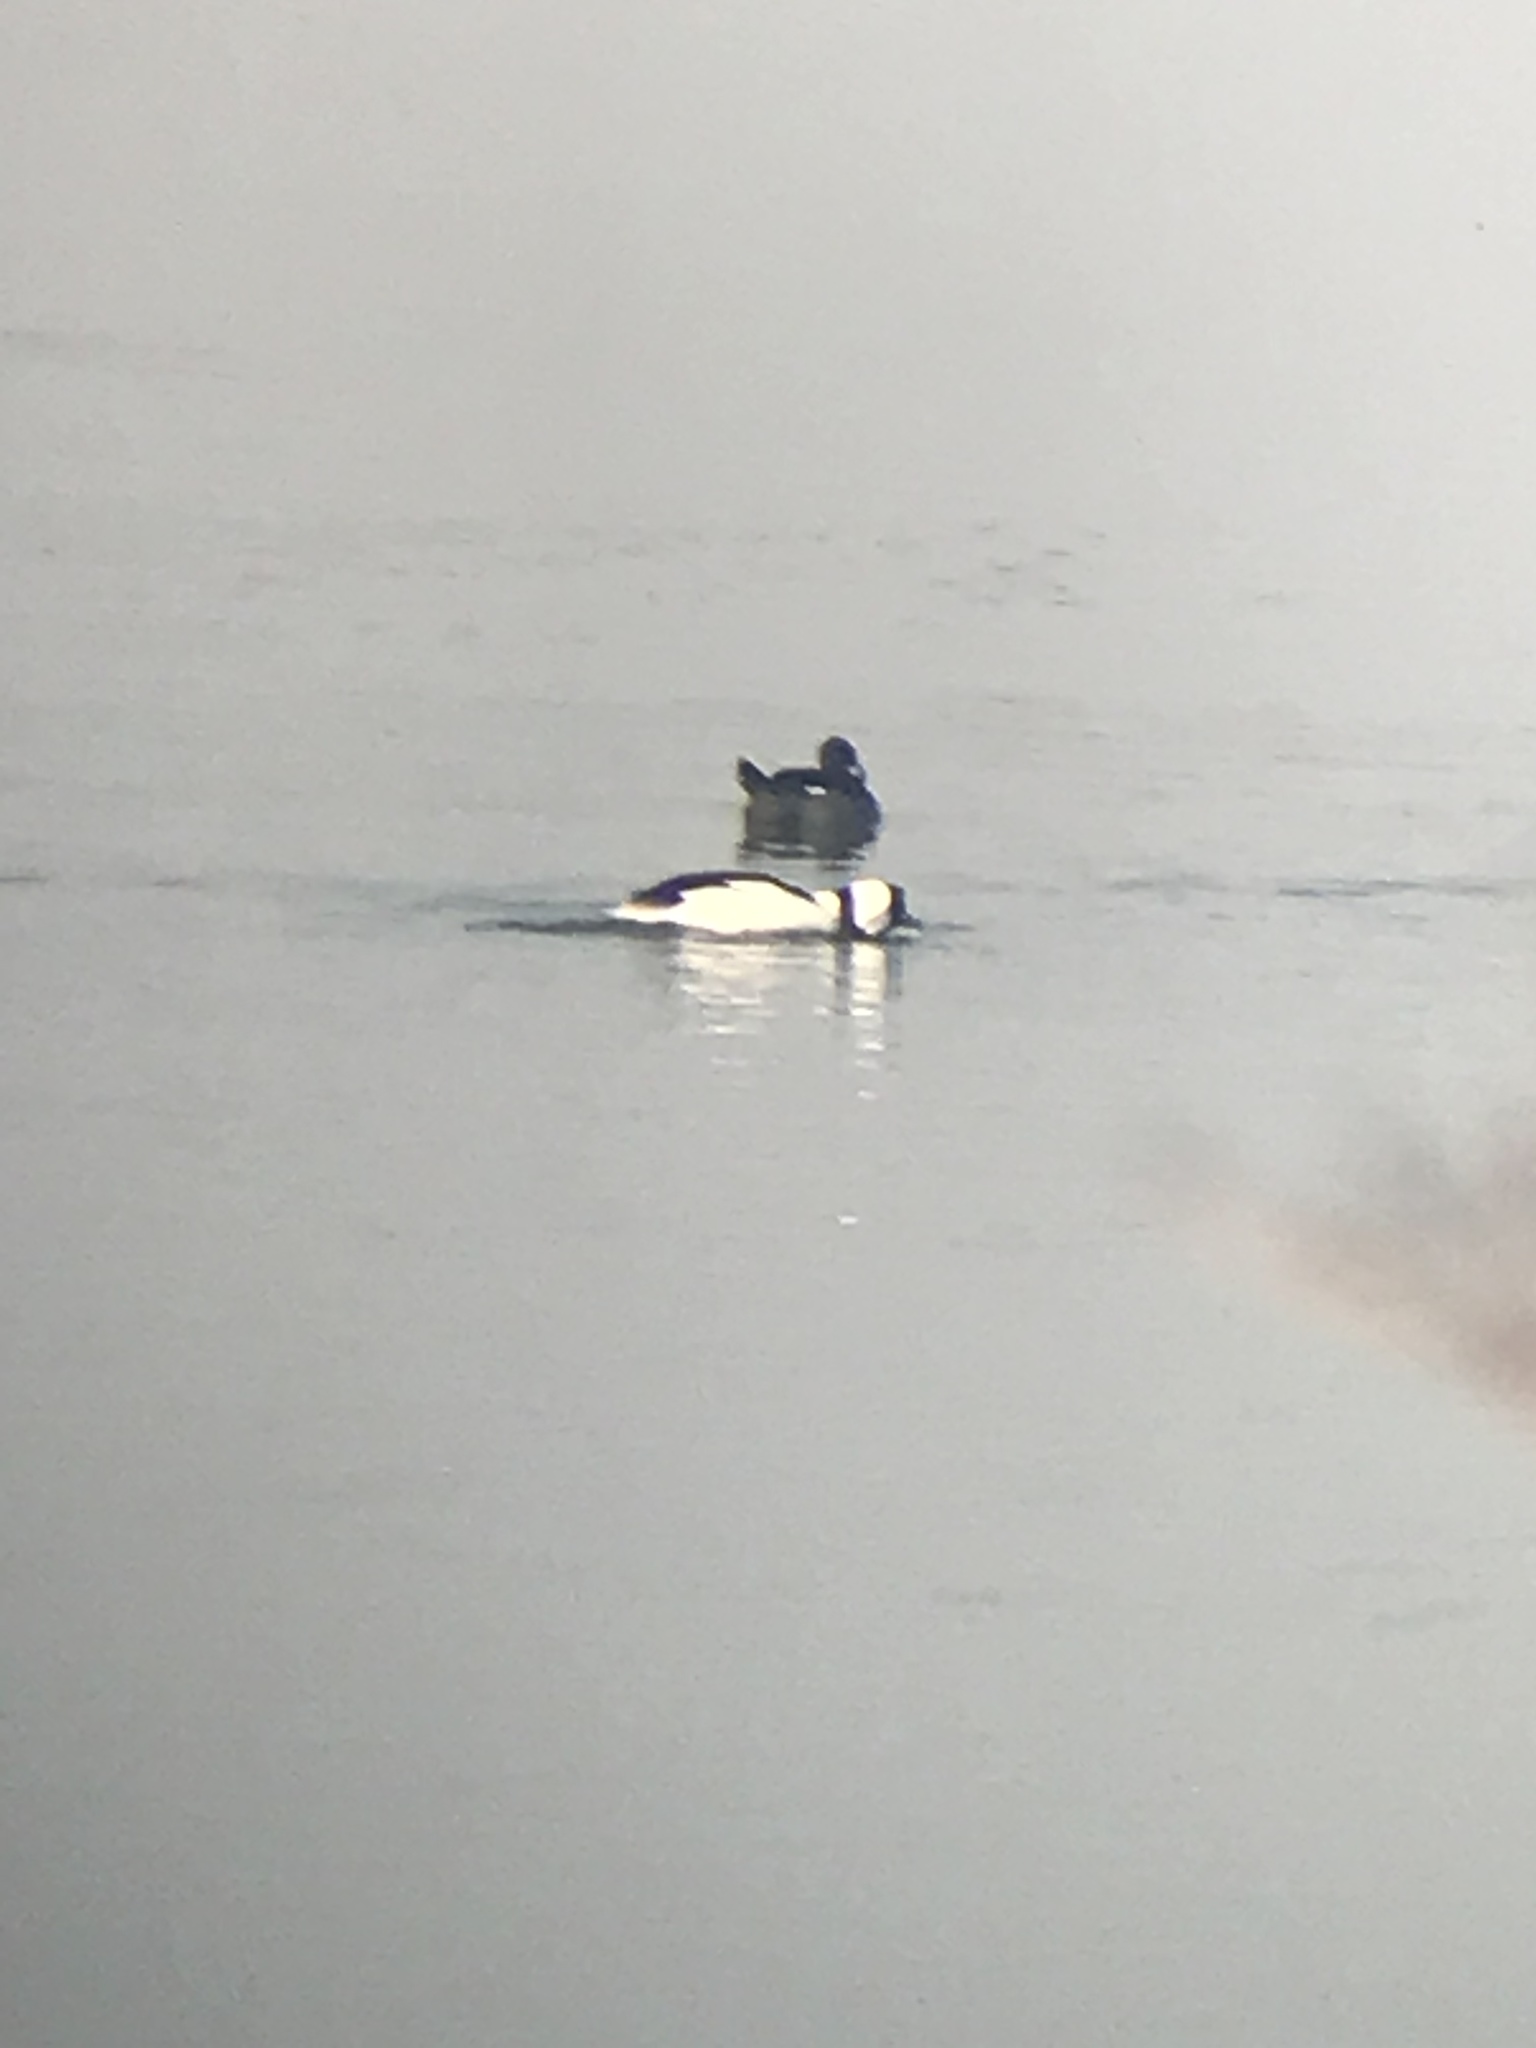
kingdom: Animalia
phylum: Chordata
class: Aves
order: Anseriformes
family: Anatidae
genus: Bucephala
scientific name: Bucephala albeola
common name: Bufflehead
